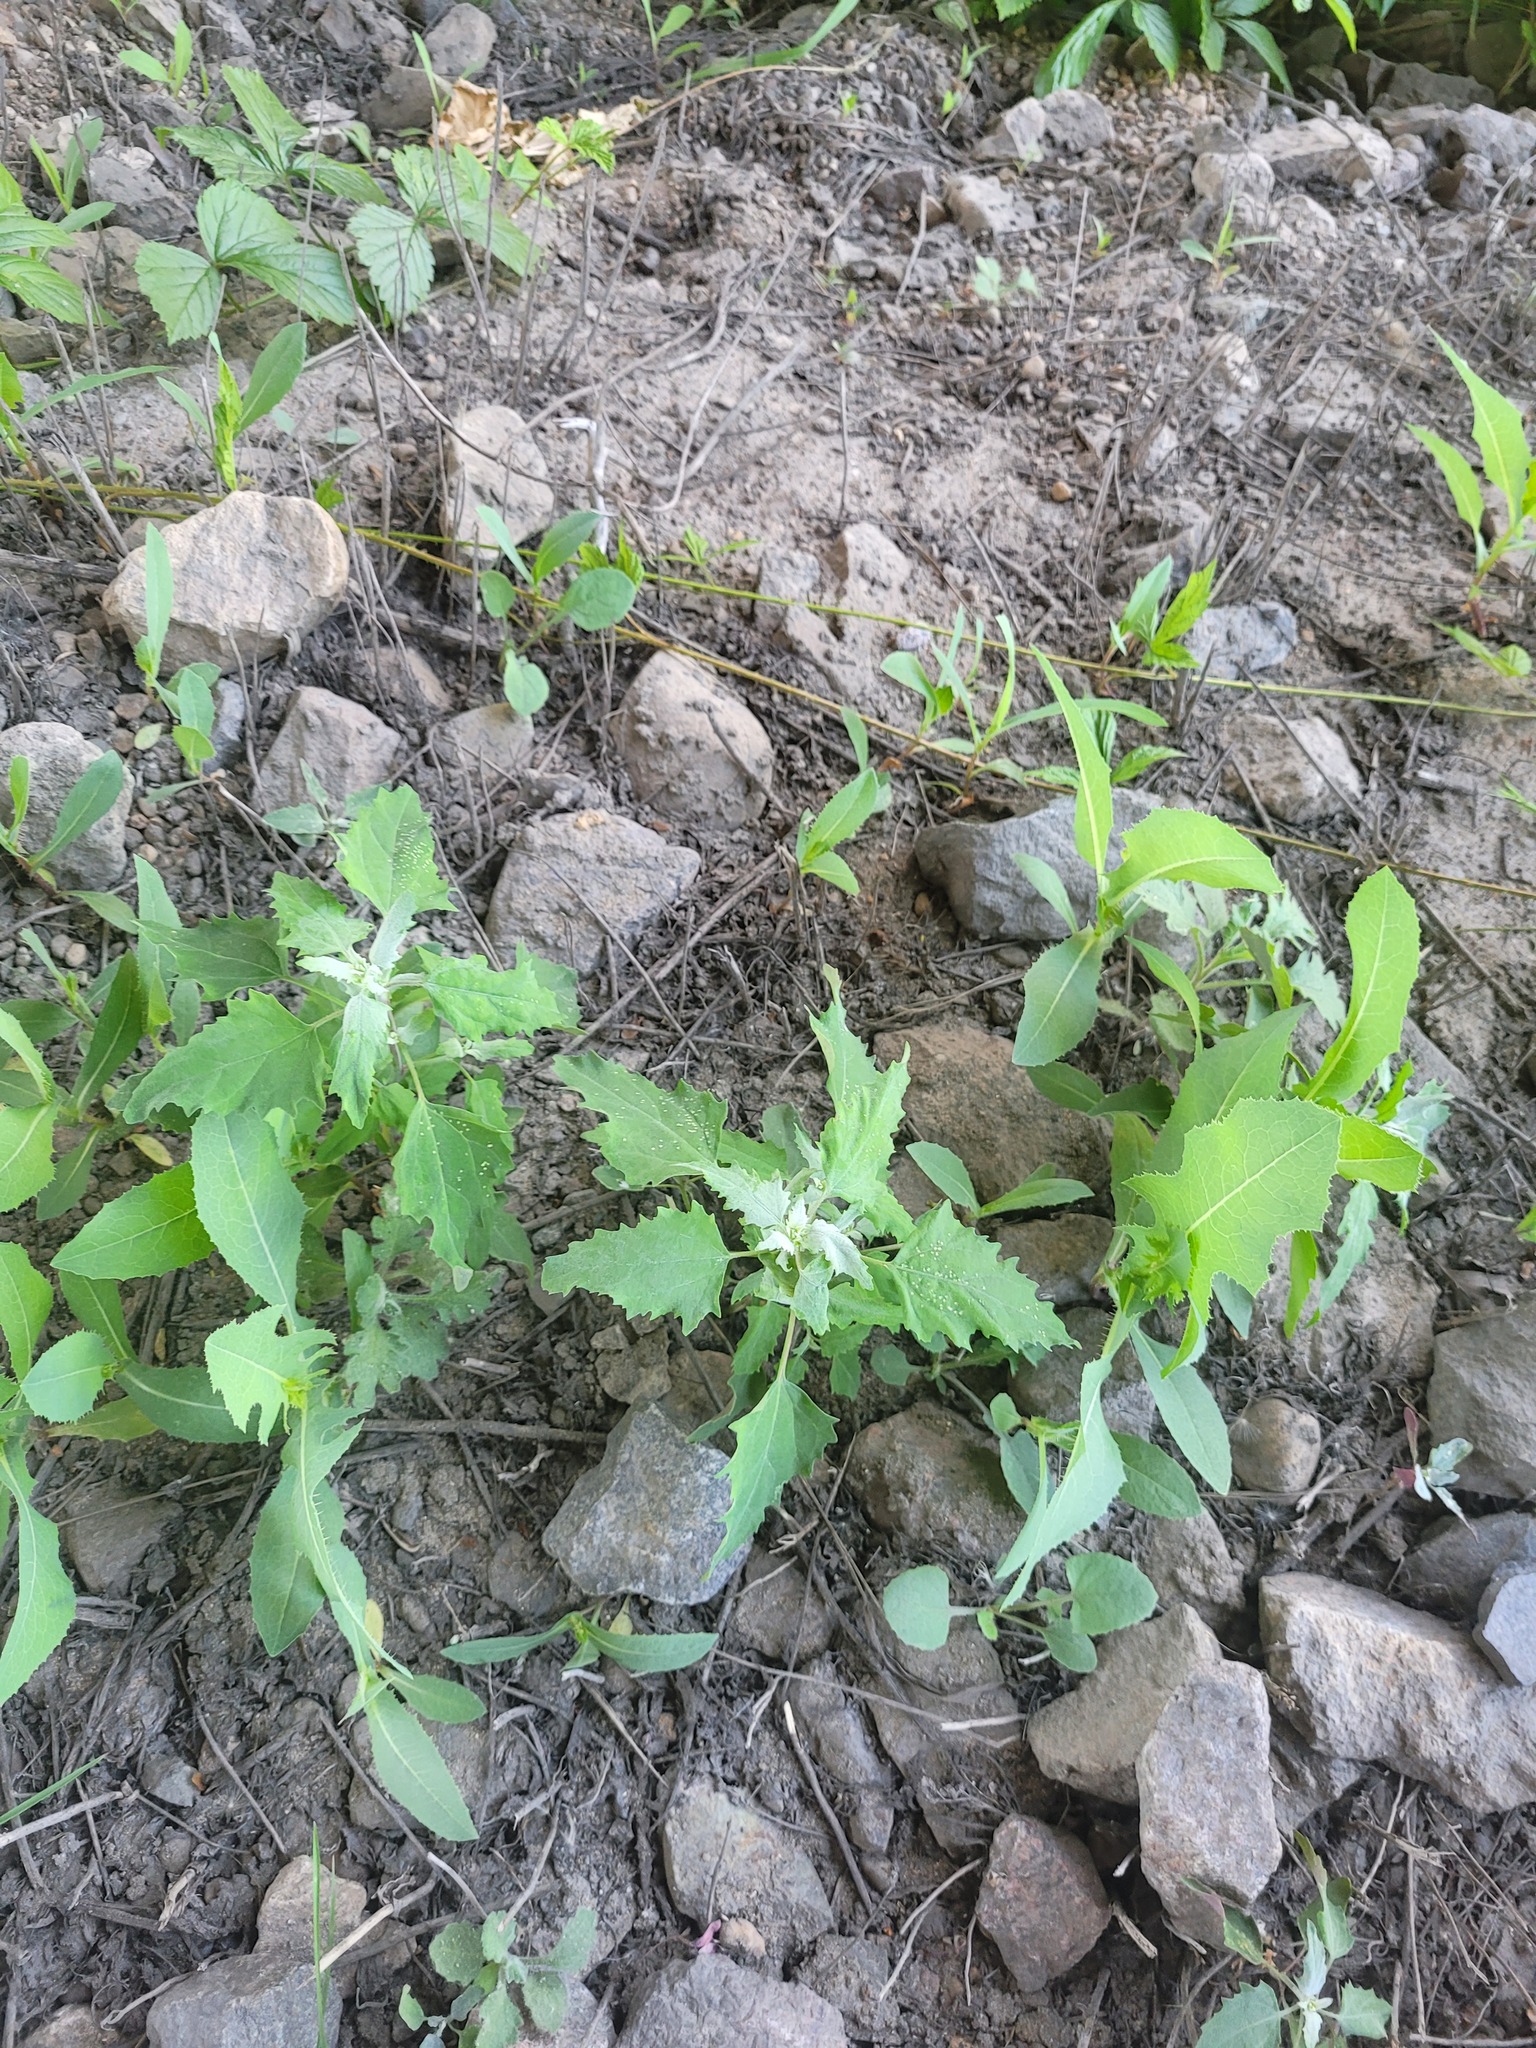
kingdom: Plantae
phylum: Tracheophyta
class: Magnoliopsida
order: Caryophyllales
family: Amaranthaceae
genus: Chenopodium
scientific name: Chenopodium album
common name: Fat-hen
